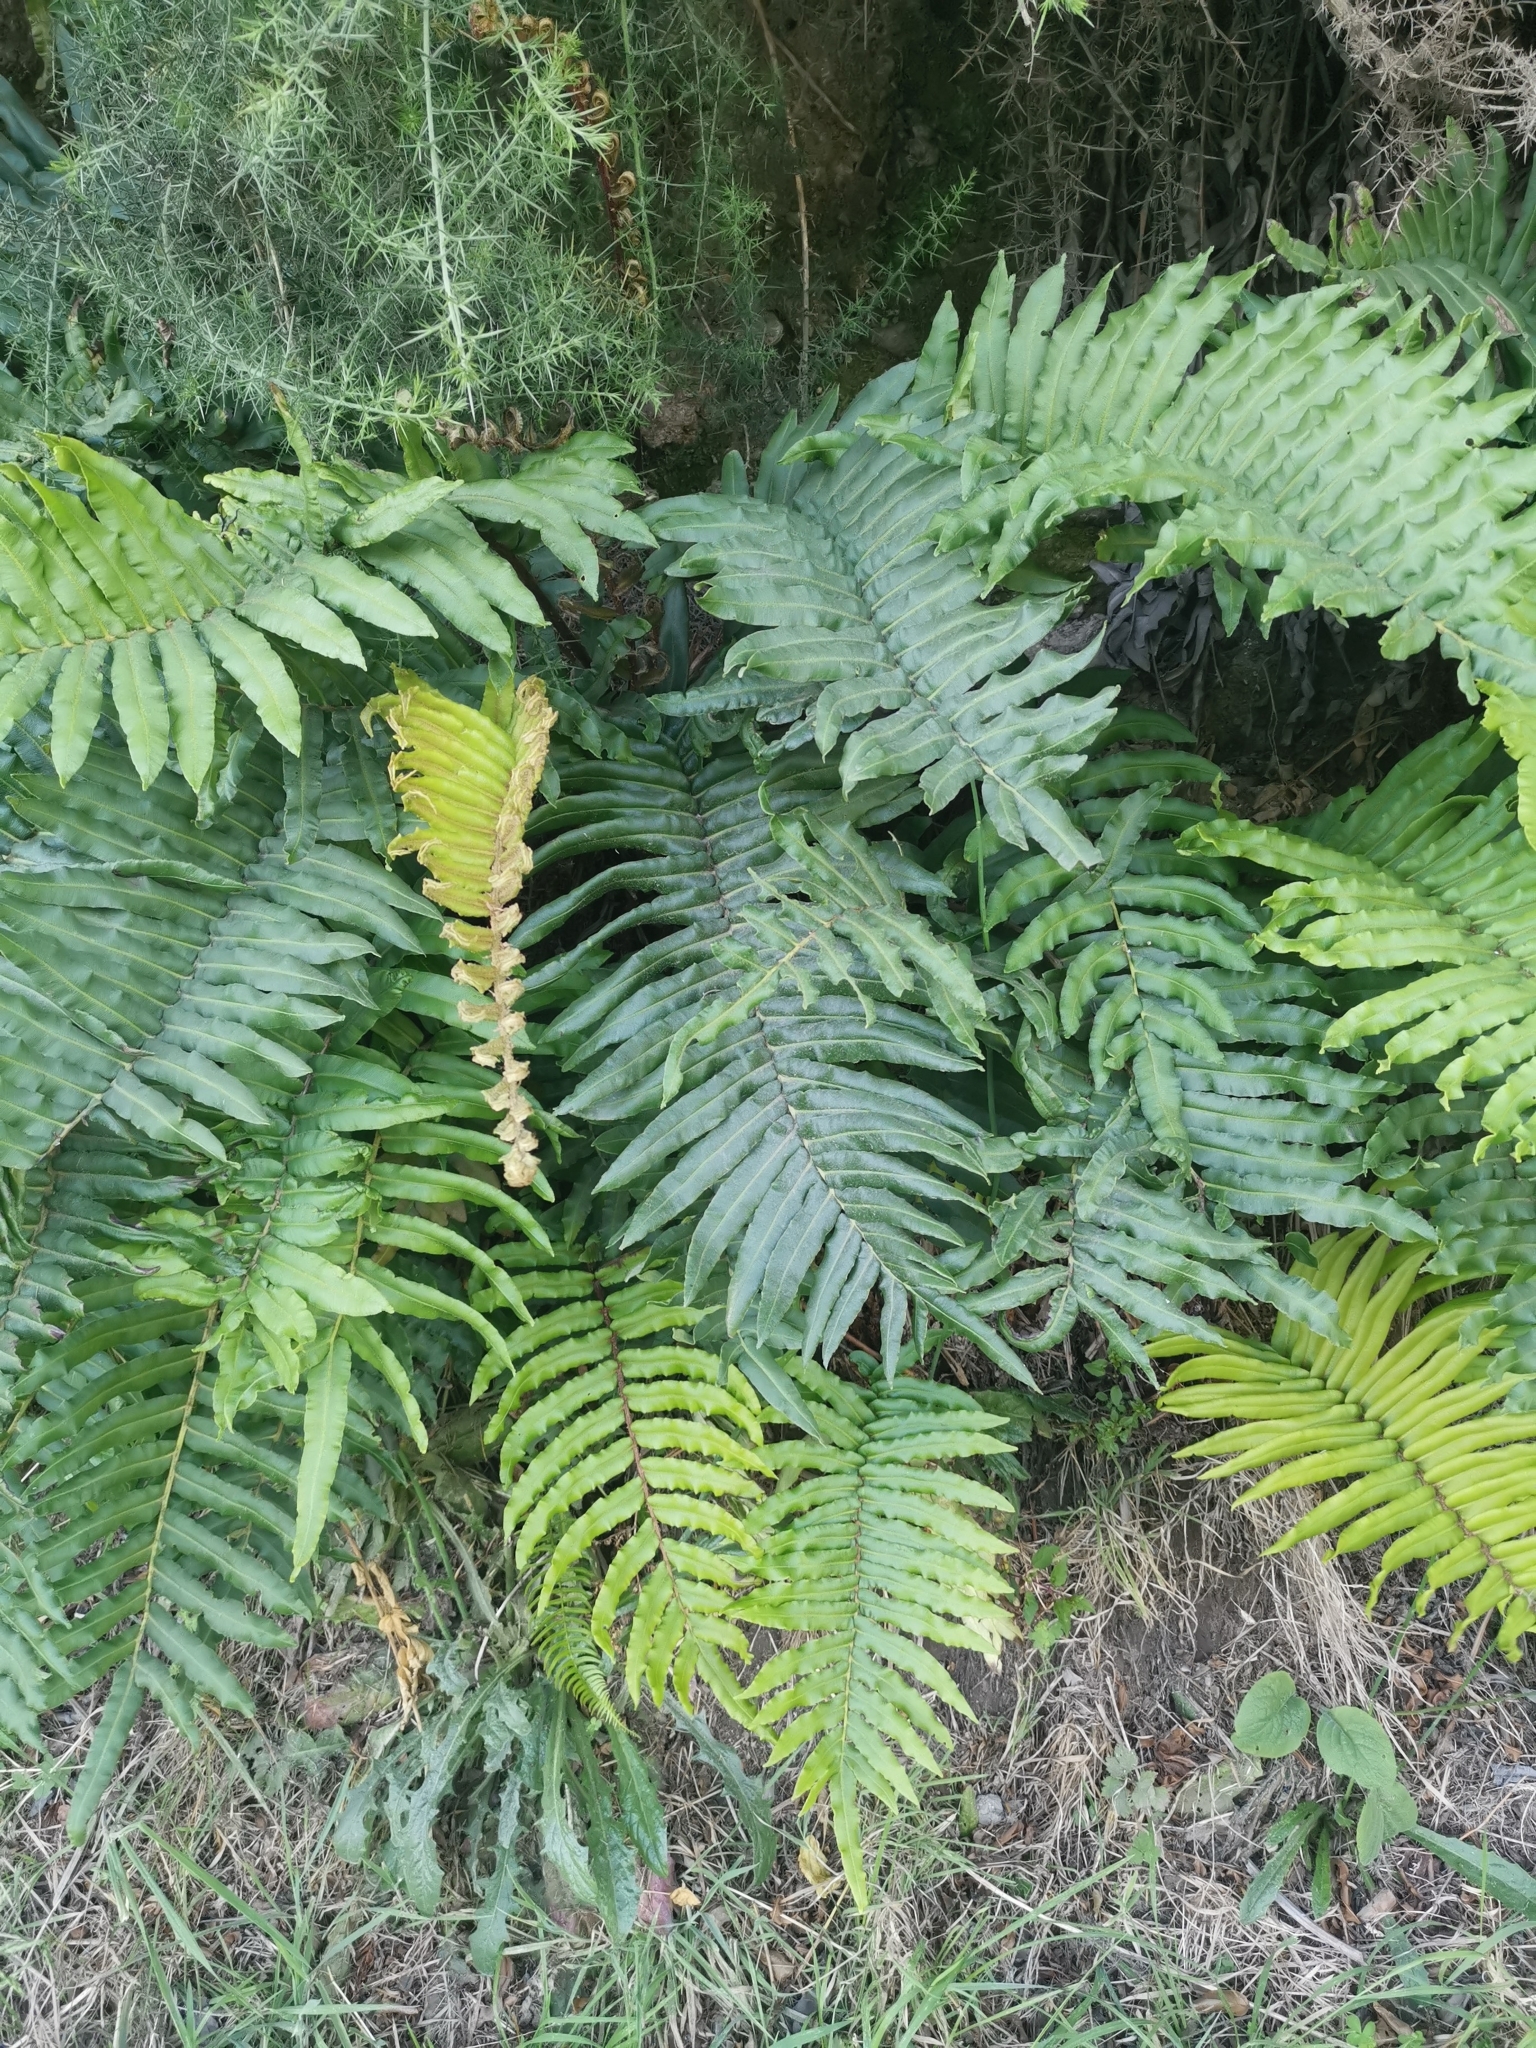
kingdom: Plantae
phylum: Tracheophyta
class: Polypodiopsida
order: Polypodiales
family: Blechnaceae
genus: Parablechnum
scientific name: Parablechnum chilense
